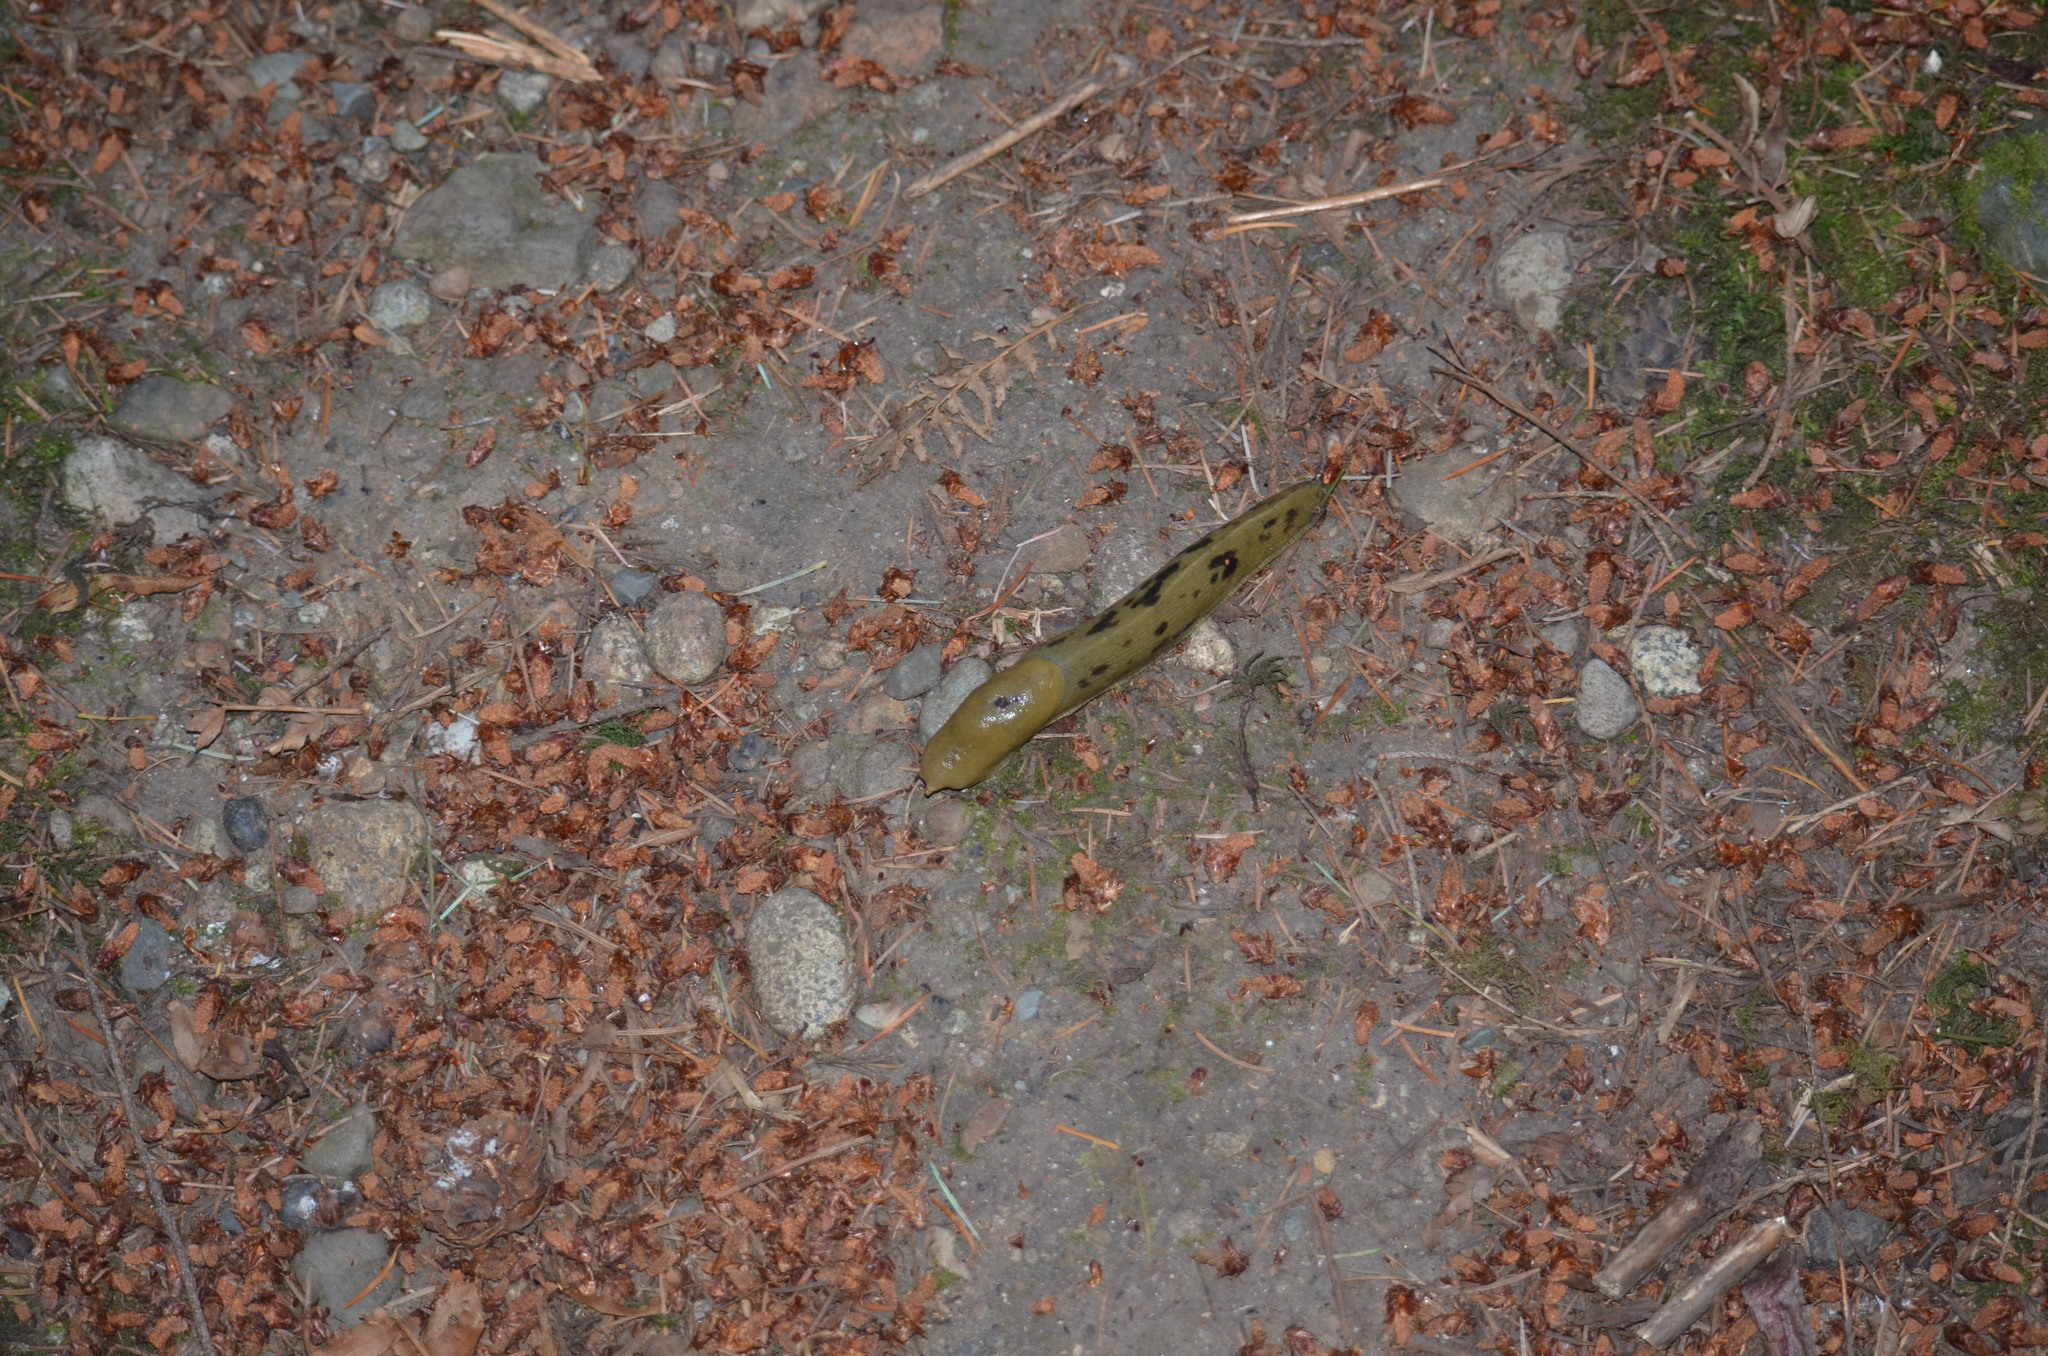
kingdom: Animalia
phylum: Mollusca
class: Gastropoda
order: Stylommatophora
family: Ariolimacidae
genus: Ariolimax
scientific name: Ariolimax columbianus
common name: Pacific banana slug
